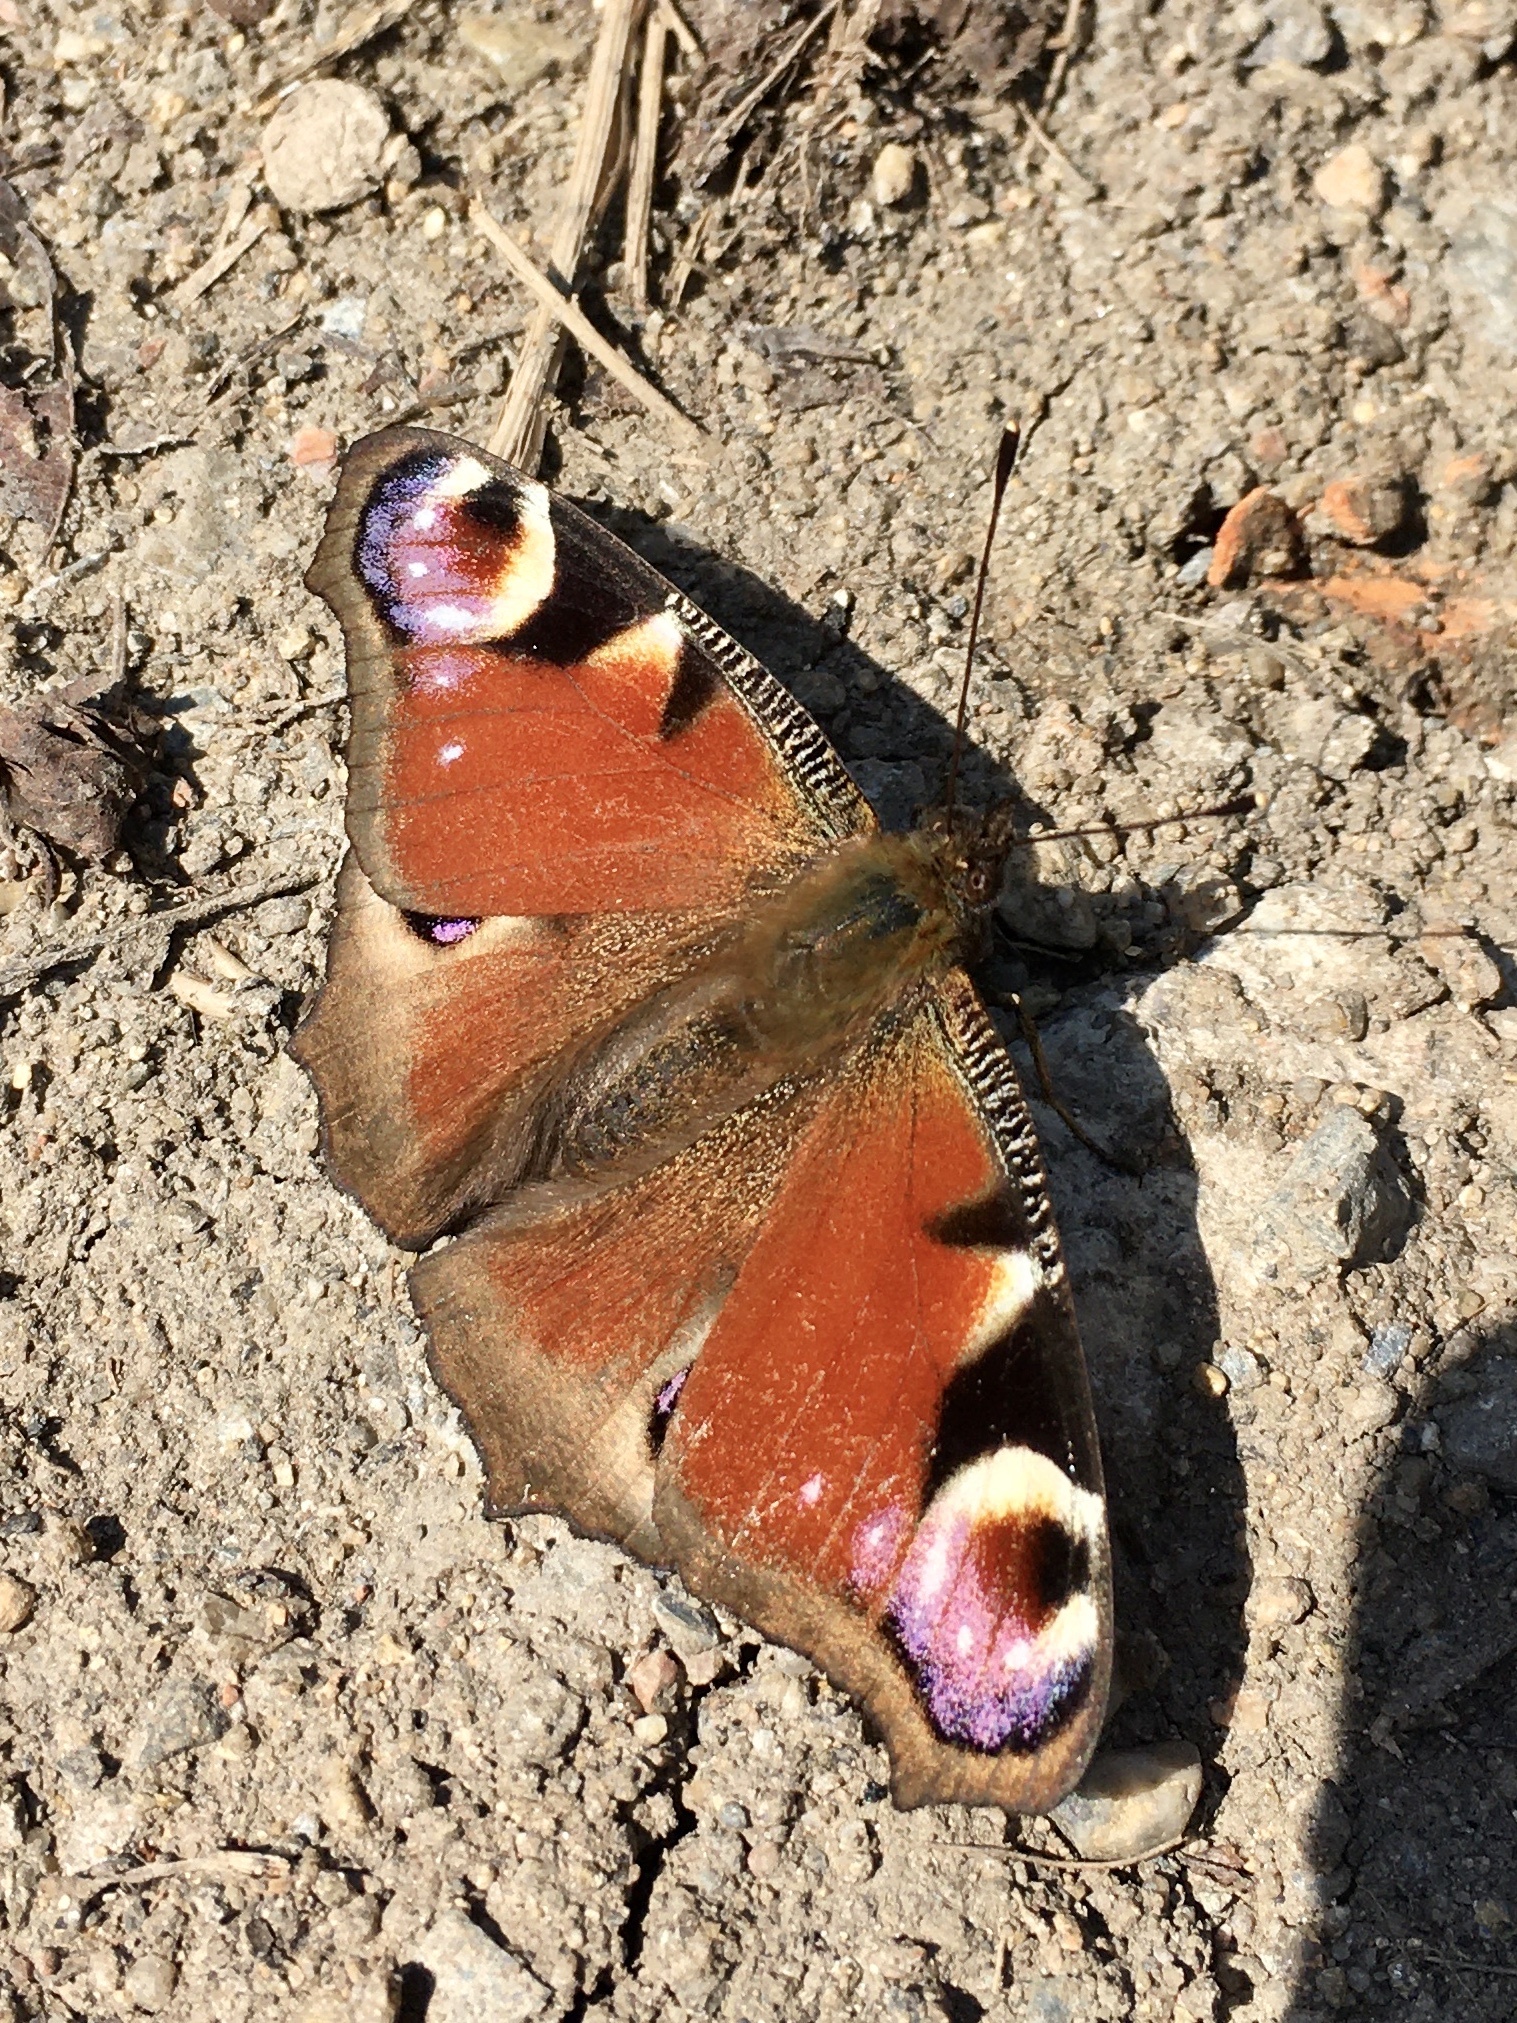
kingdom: Animalia
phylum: Arthropoda
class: Insecta
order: Lepidoptera
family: Nymphalidae
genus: Aglais
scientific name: Aglais io
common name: Peacock
